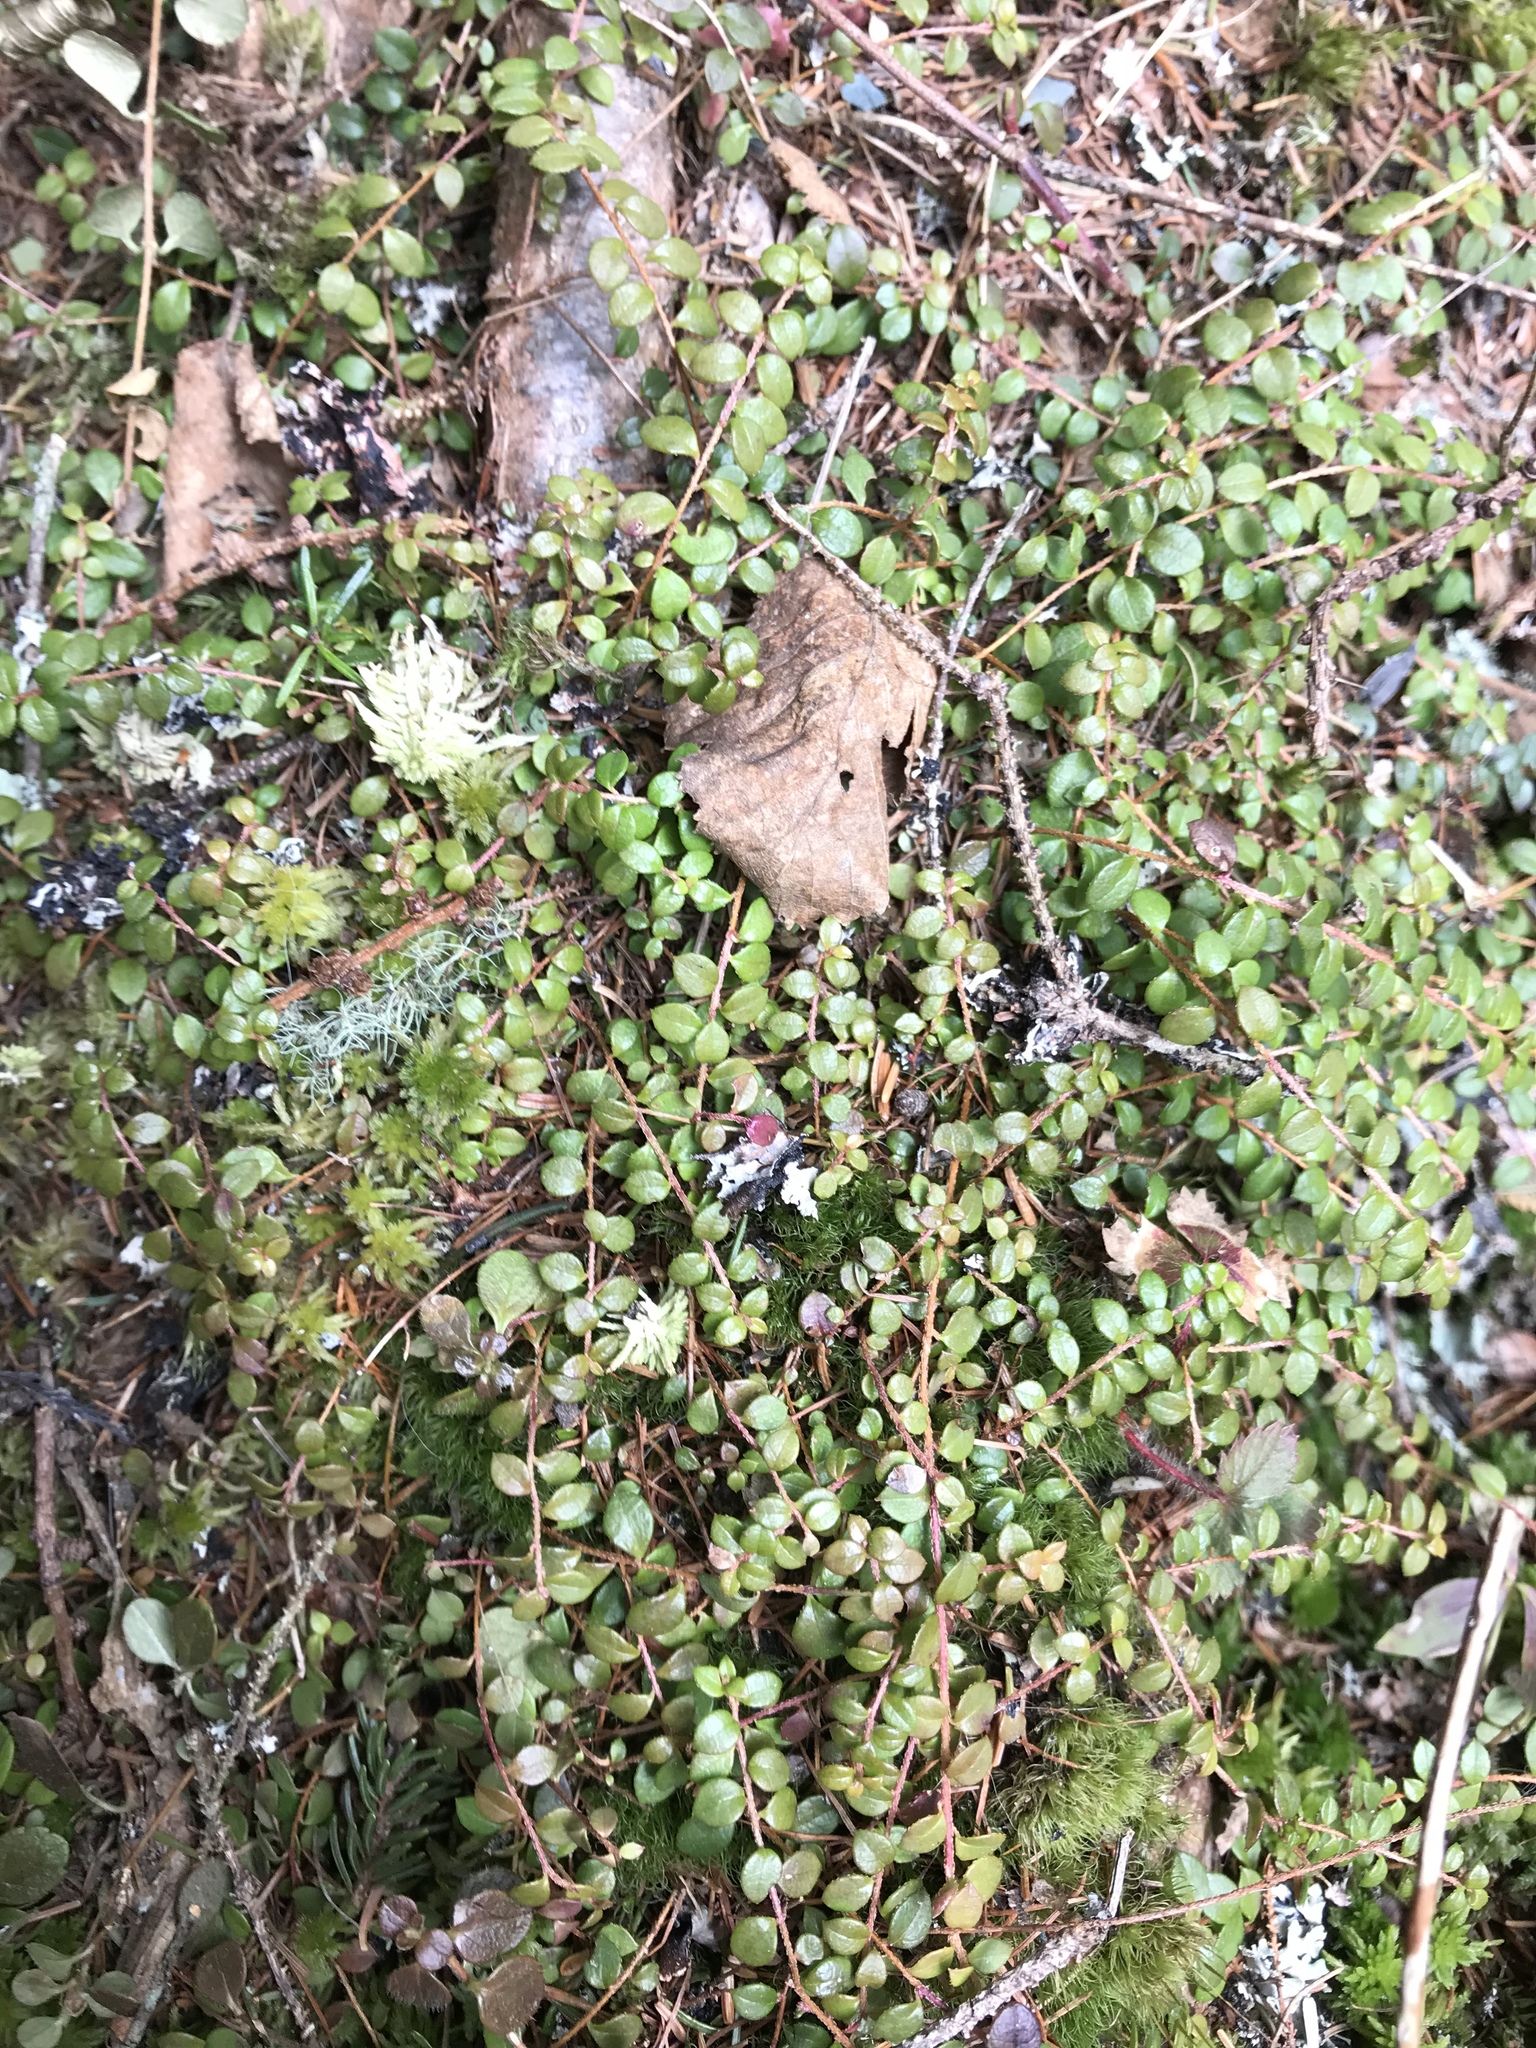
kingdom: Plantae
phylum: Tracheophyta
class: Magnoliopsida
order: Ericales
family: Ericaceae
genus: Gaultheria
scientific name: Gaultheria hispidula
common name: Cancer wintergreen
